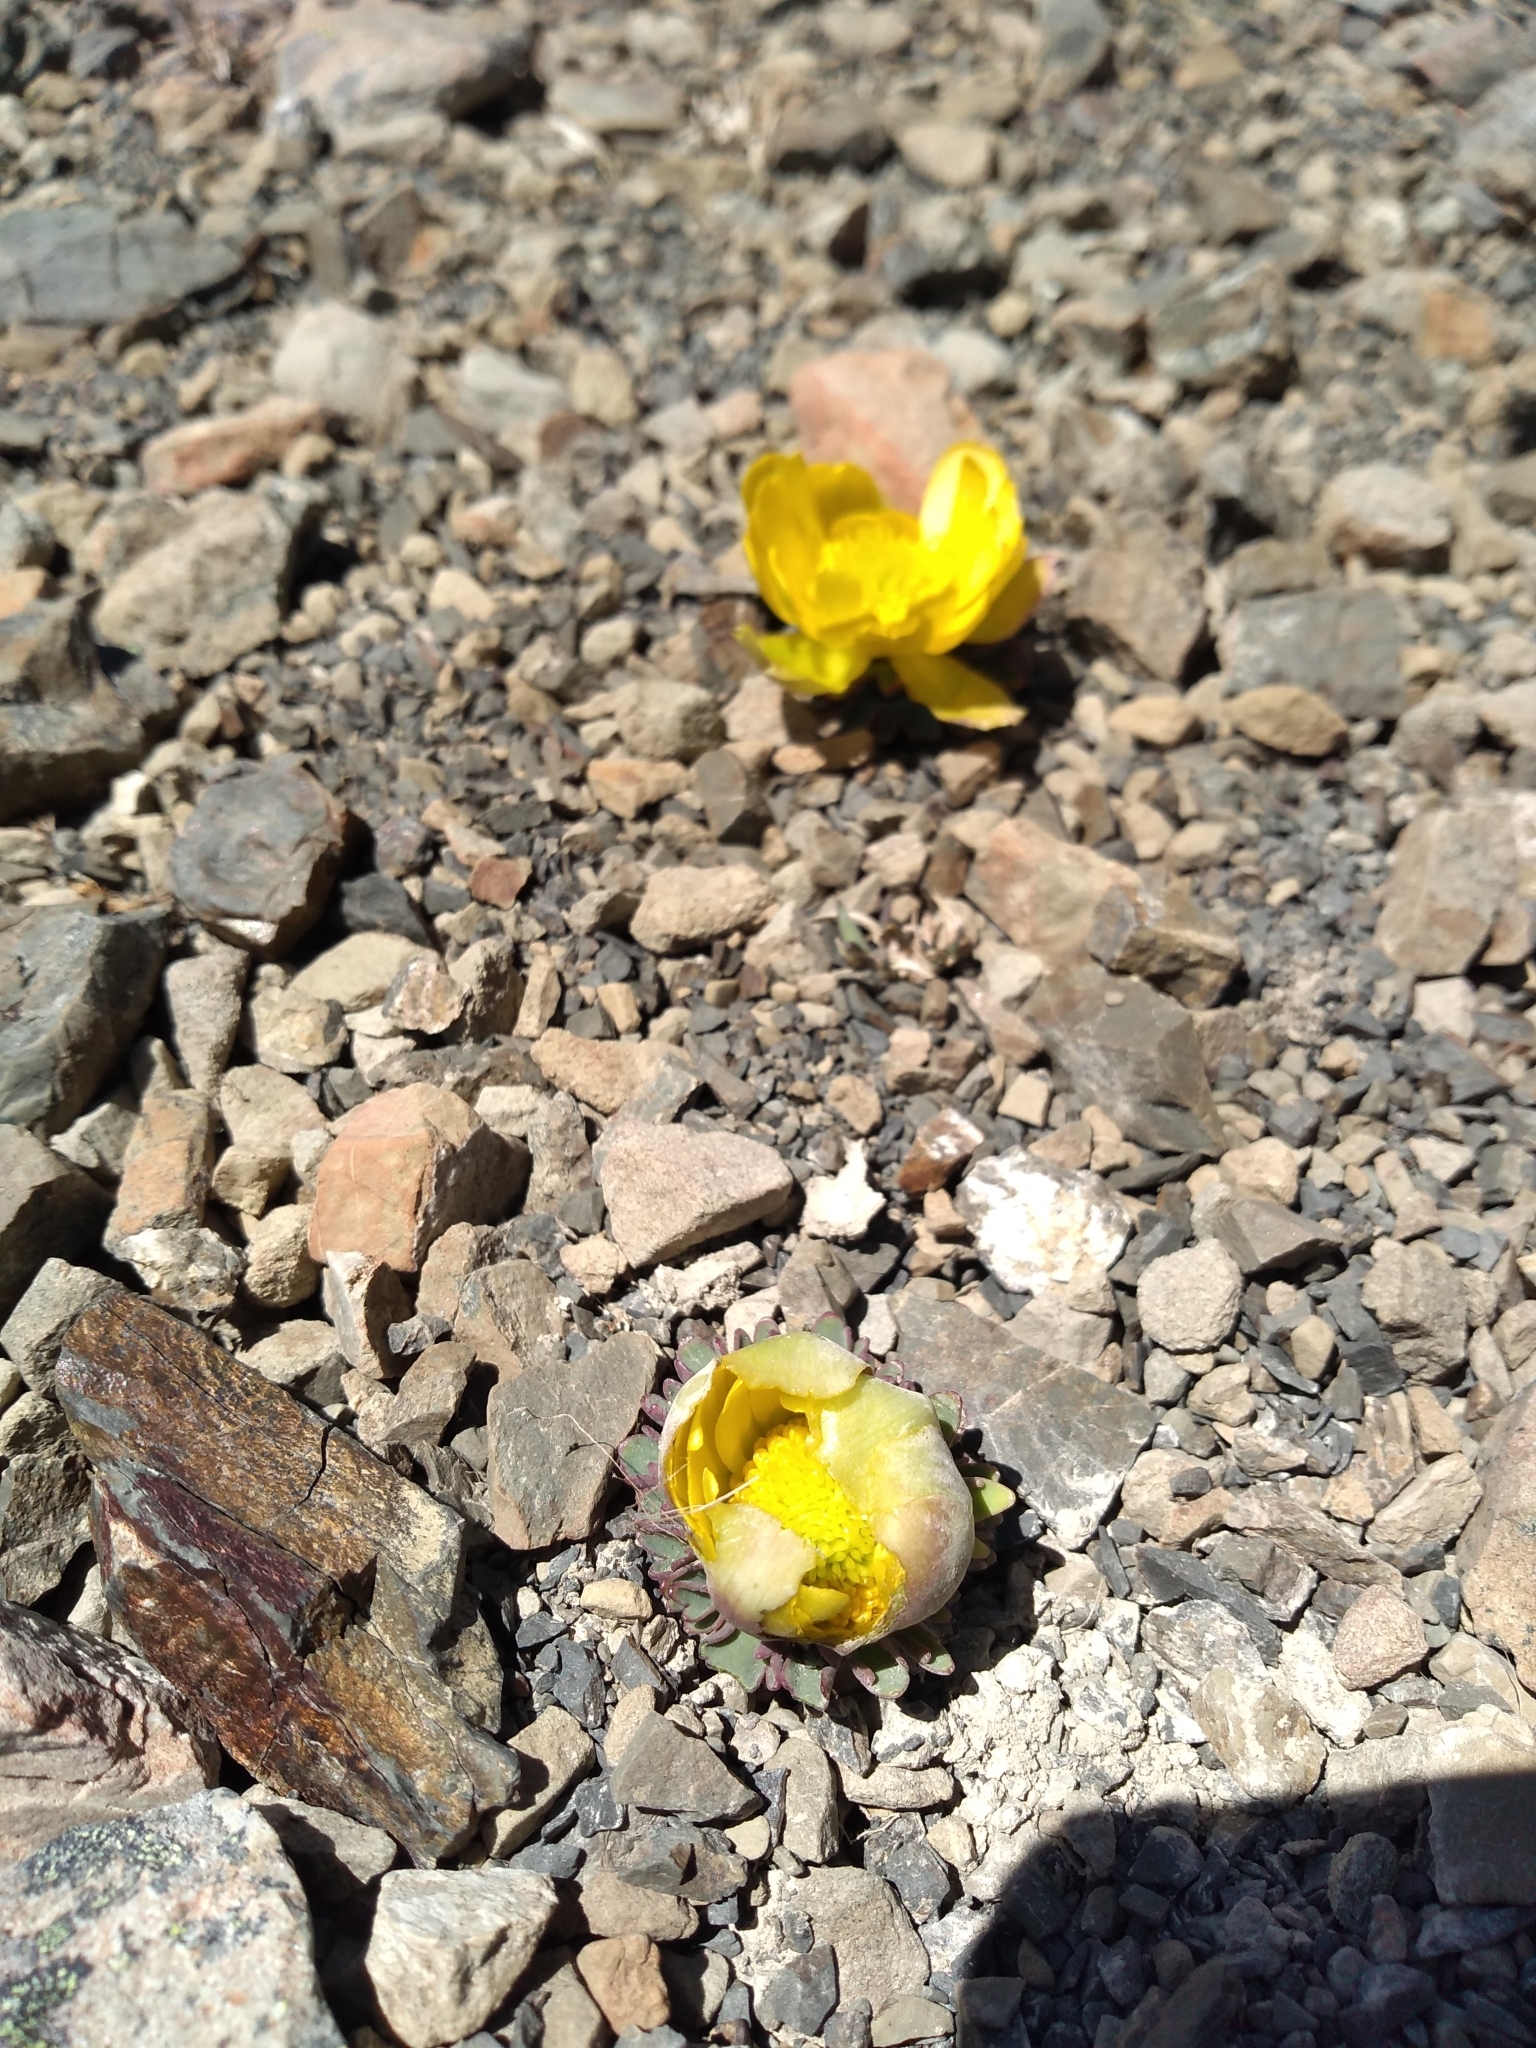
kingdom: Plantae
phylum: Tracheophyta
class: Magnoliopsida
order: Ranunculales
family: Ranunculaceae
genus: Ranunculus
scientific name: Ranunculus haastii
